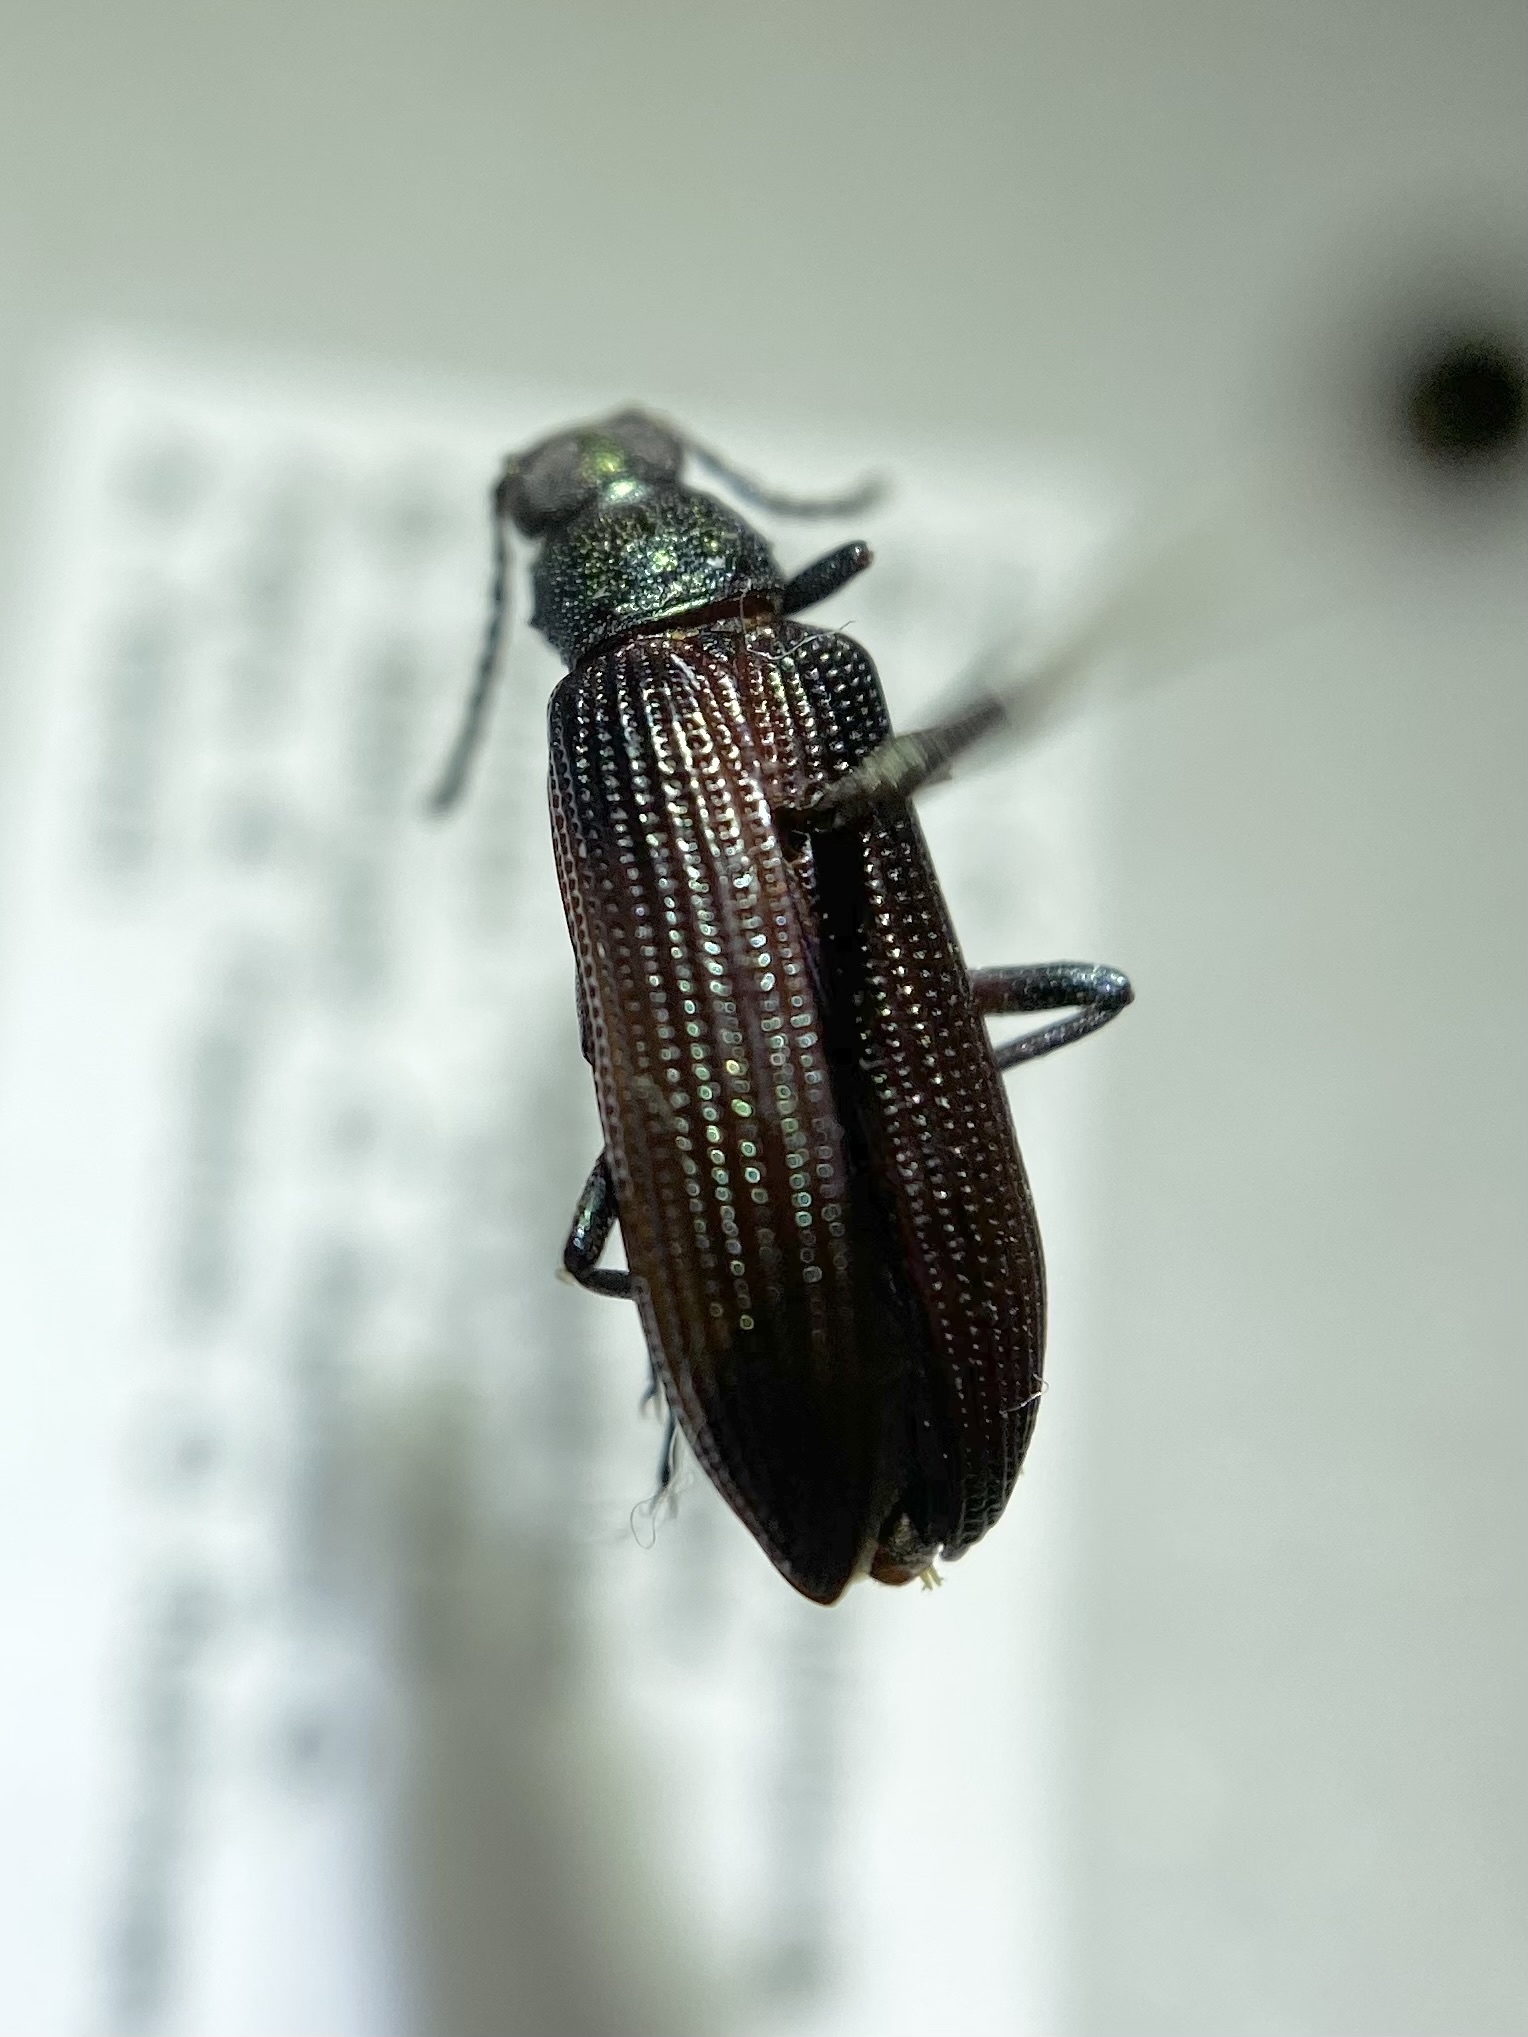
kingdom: Animalia
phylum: Arthropoda
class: Insecta
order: Coleoptera
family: Tenebrionidae
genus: Strongylium
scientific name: Strongylium
